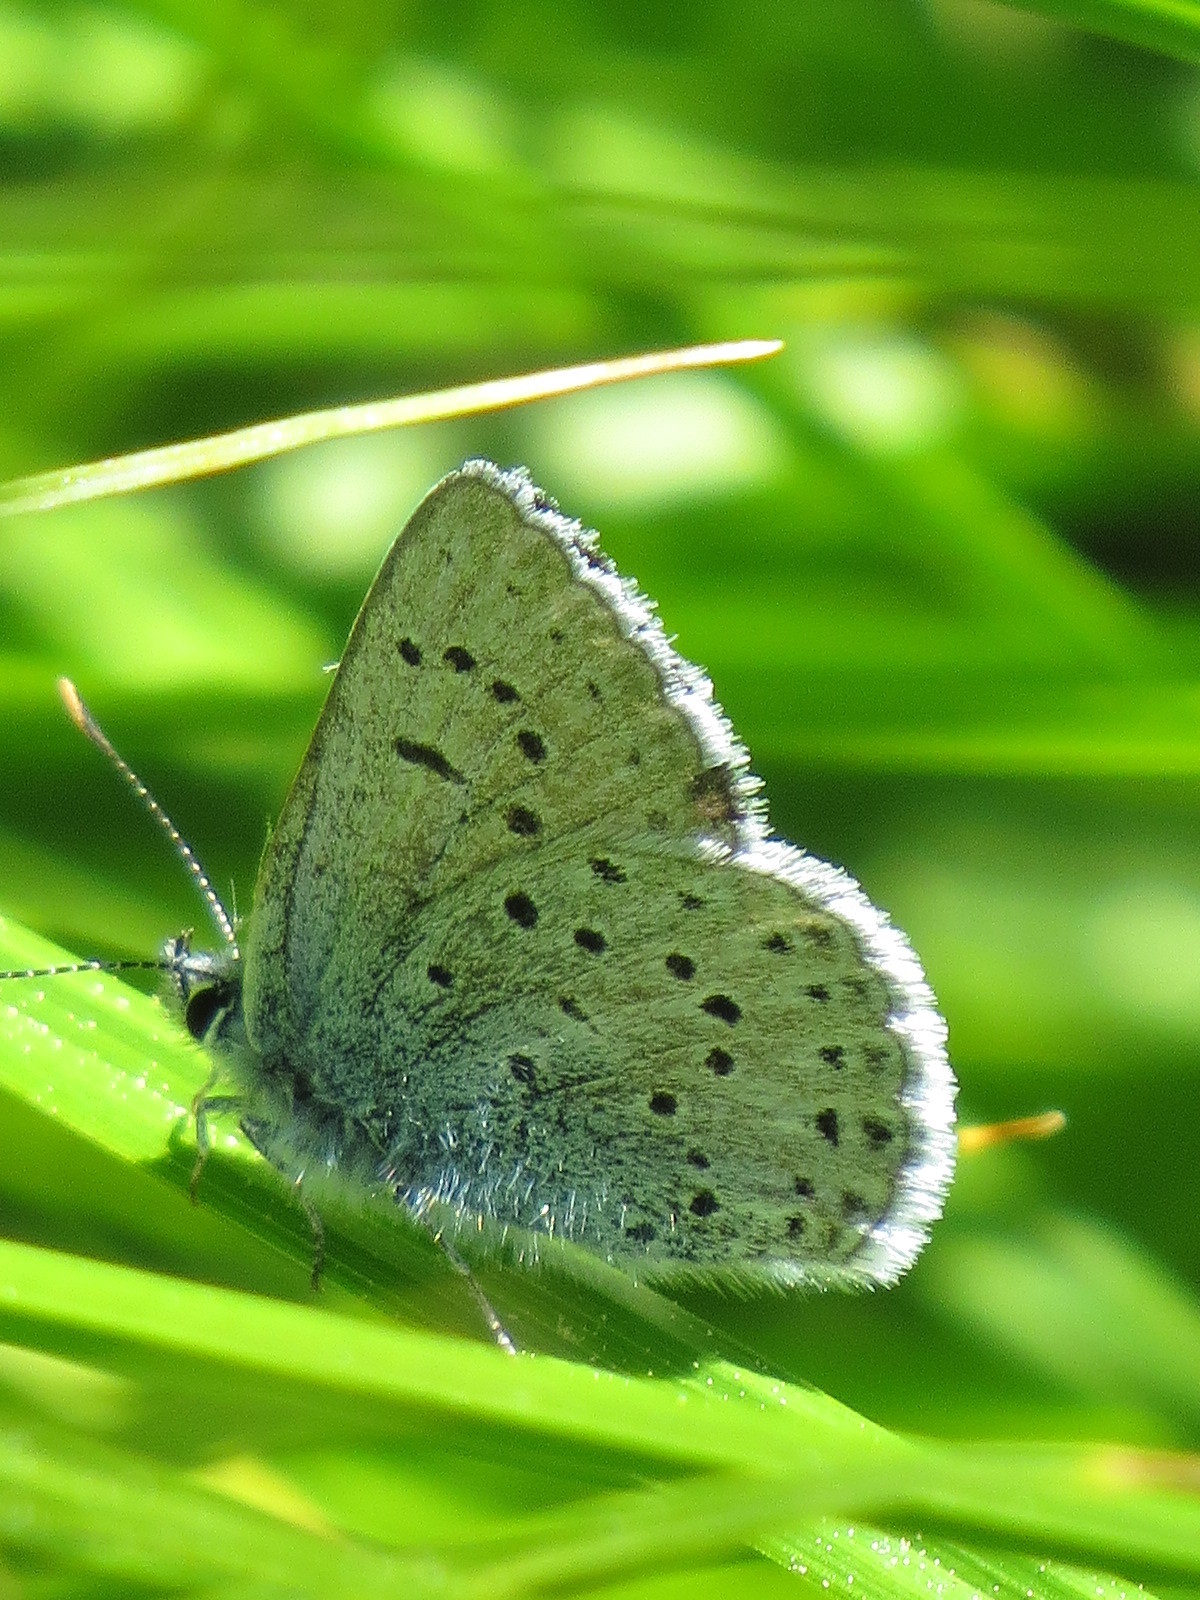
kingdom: Animalia
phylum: Arthropoda
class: Insecta
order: Lepidoptera
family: Lycaenidae
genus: Icaricia
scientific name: Icaricia saepiolus
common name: Greenish blue
